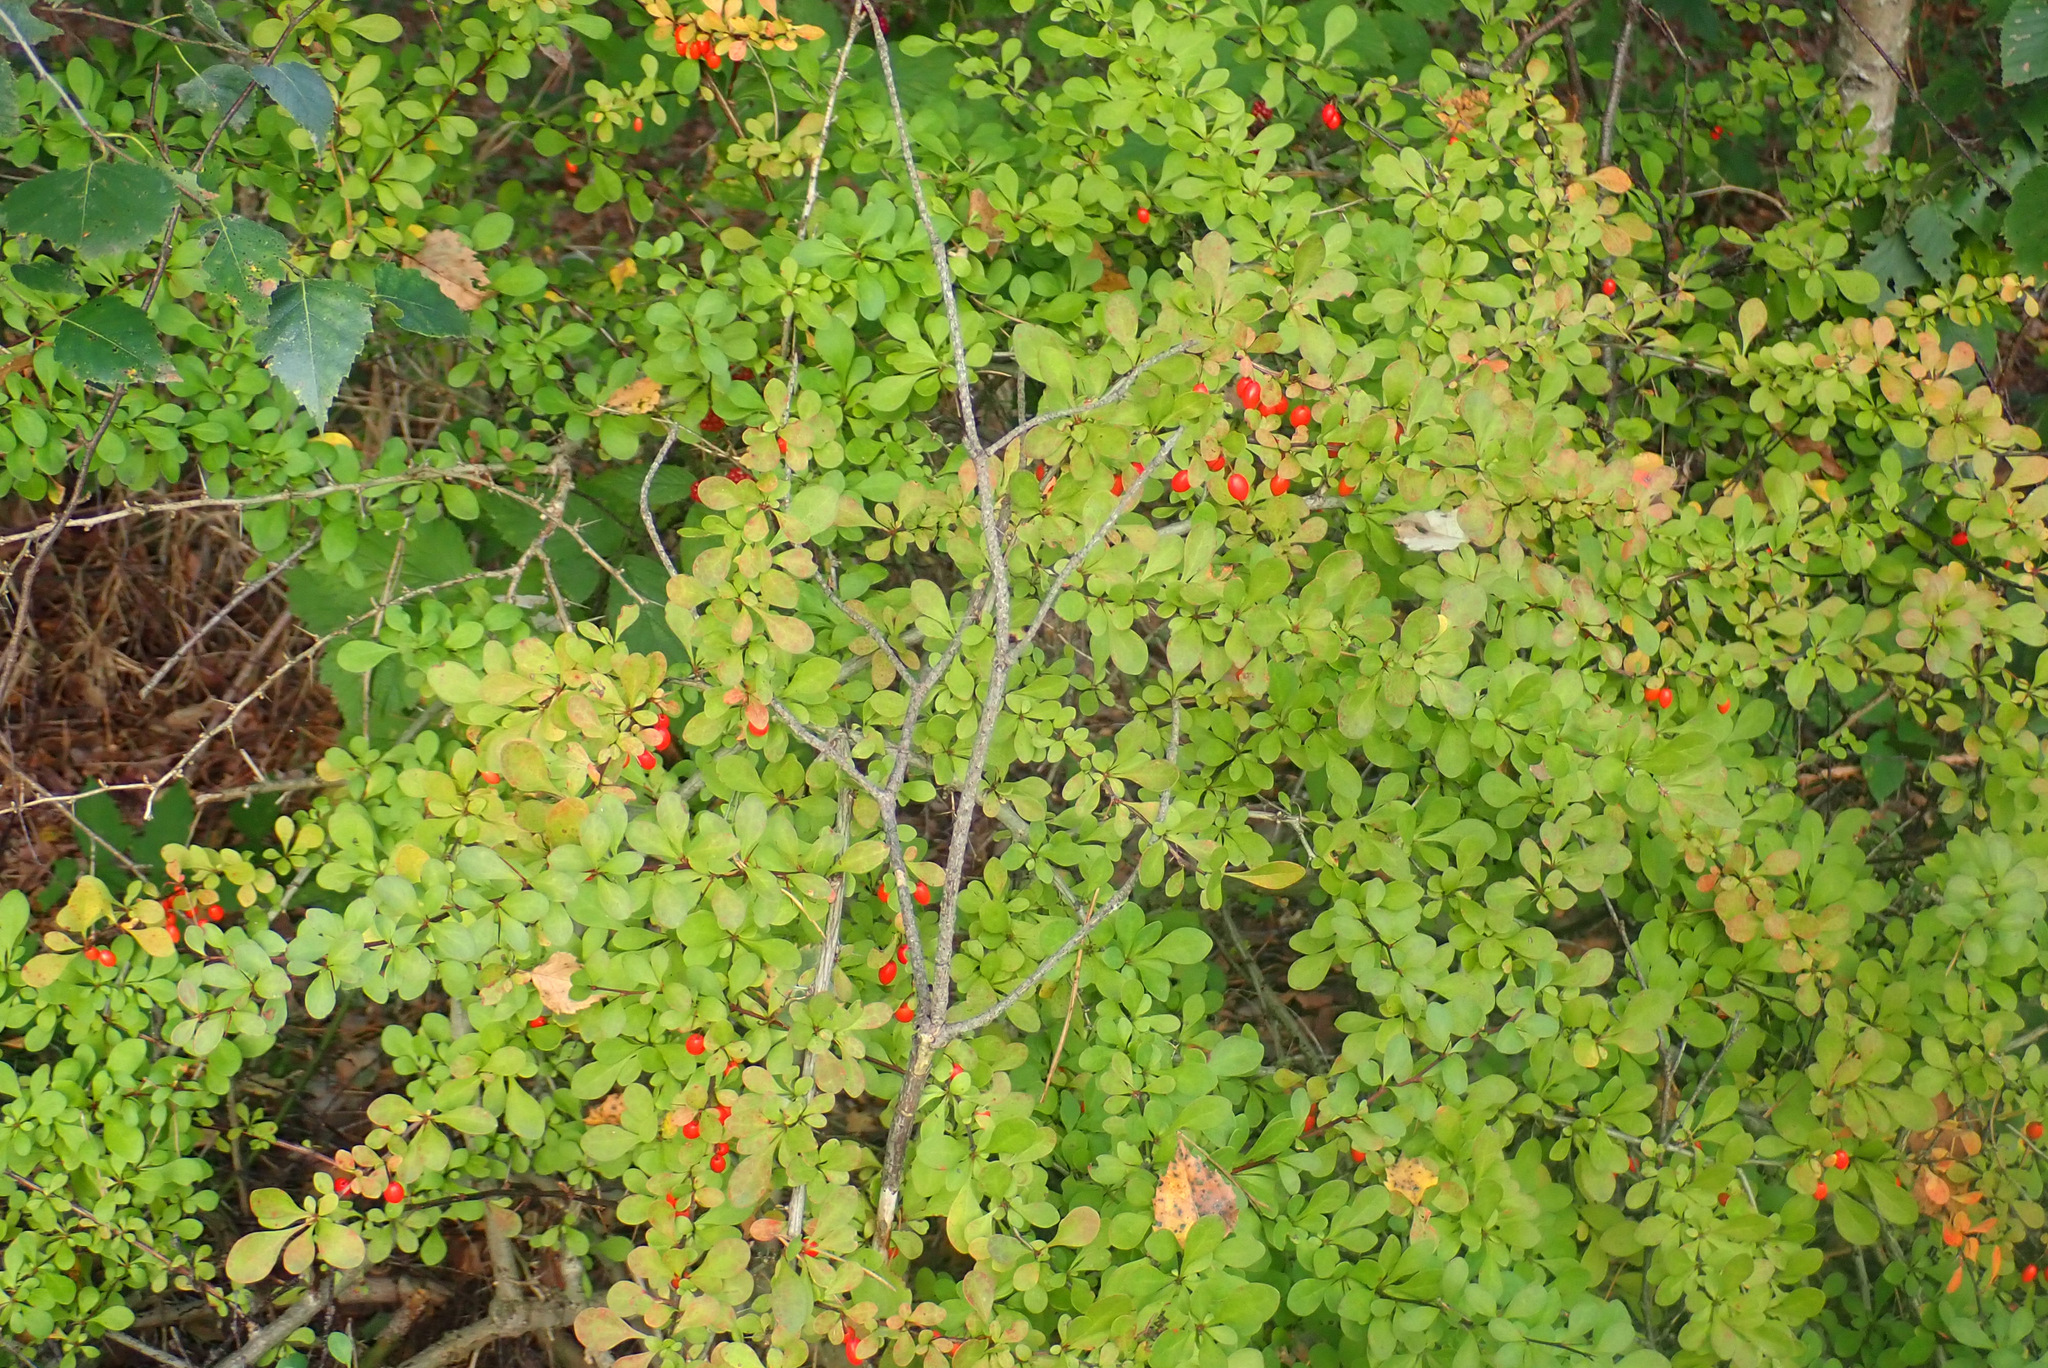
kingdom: Plantae
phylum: Tracheophyta
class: Magnoliopsida
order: Ranunculales
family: Berberidaceae
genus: Berberis
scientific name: Berberis thunbergii
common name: Japanese barberry
